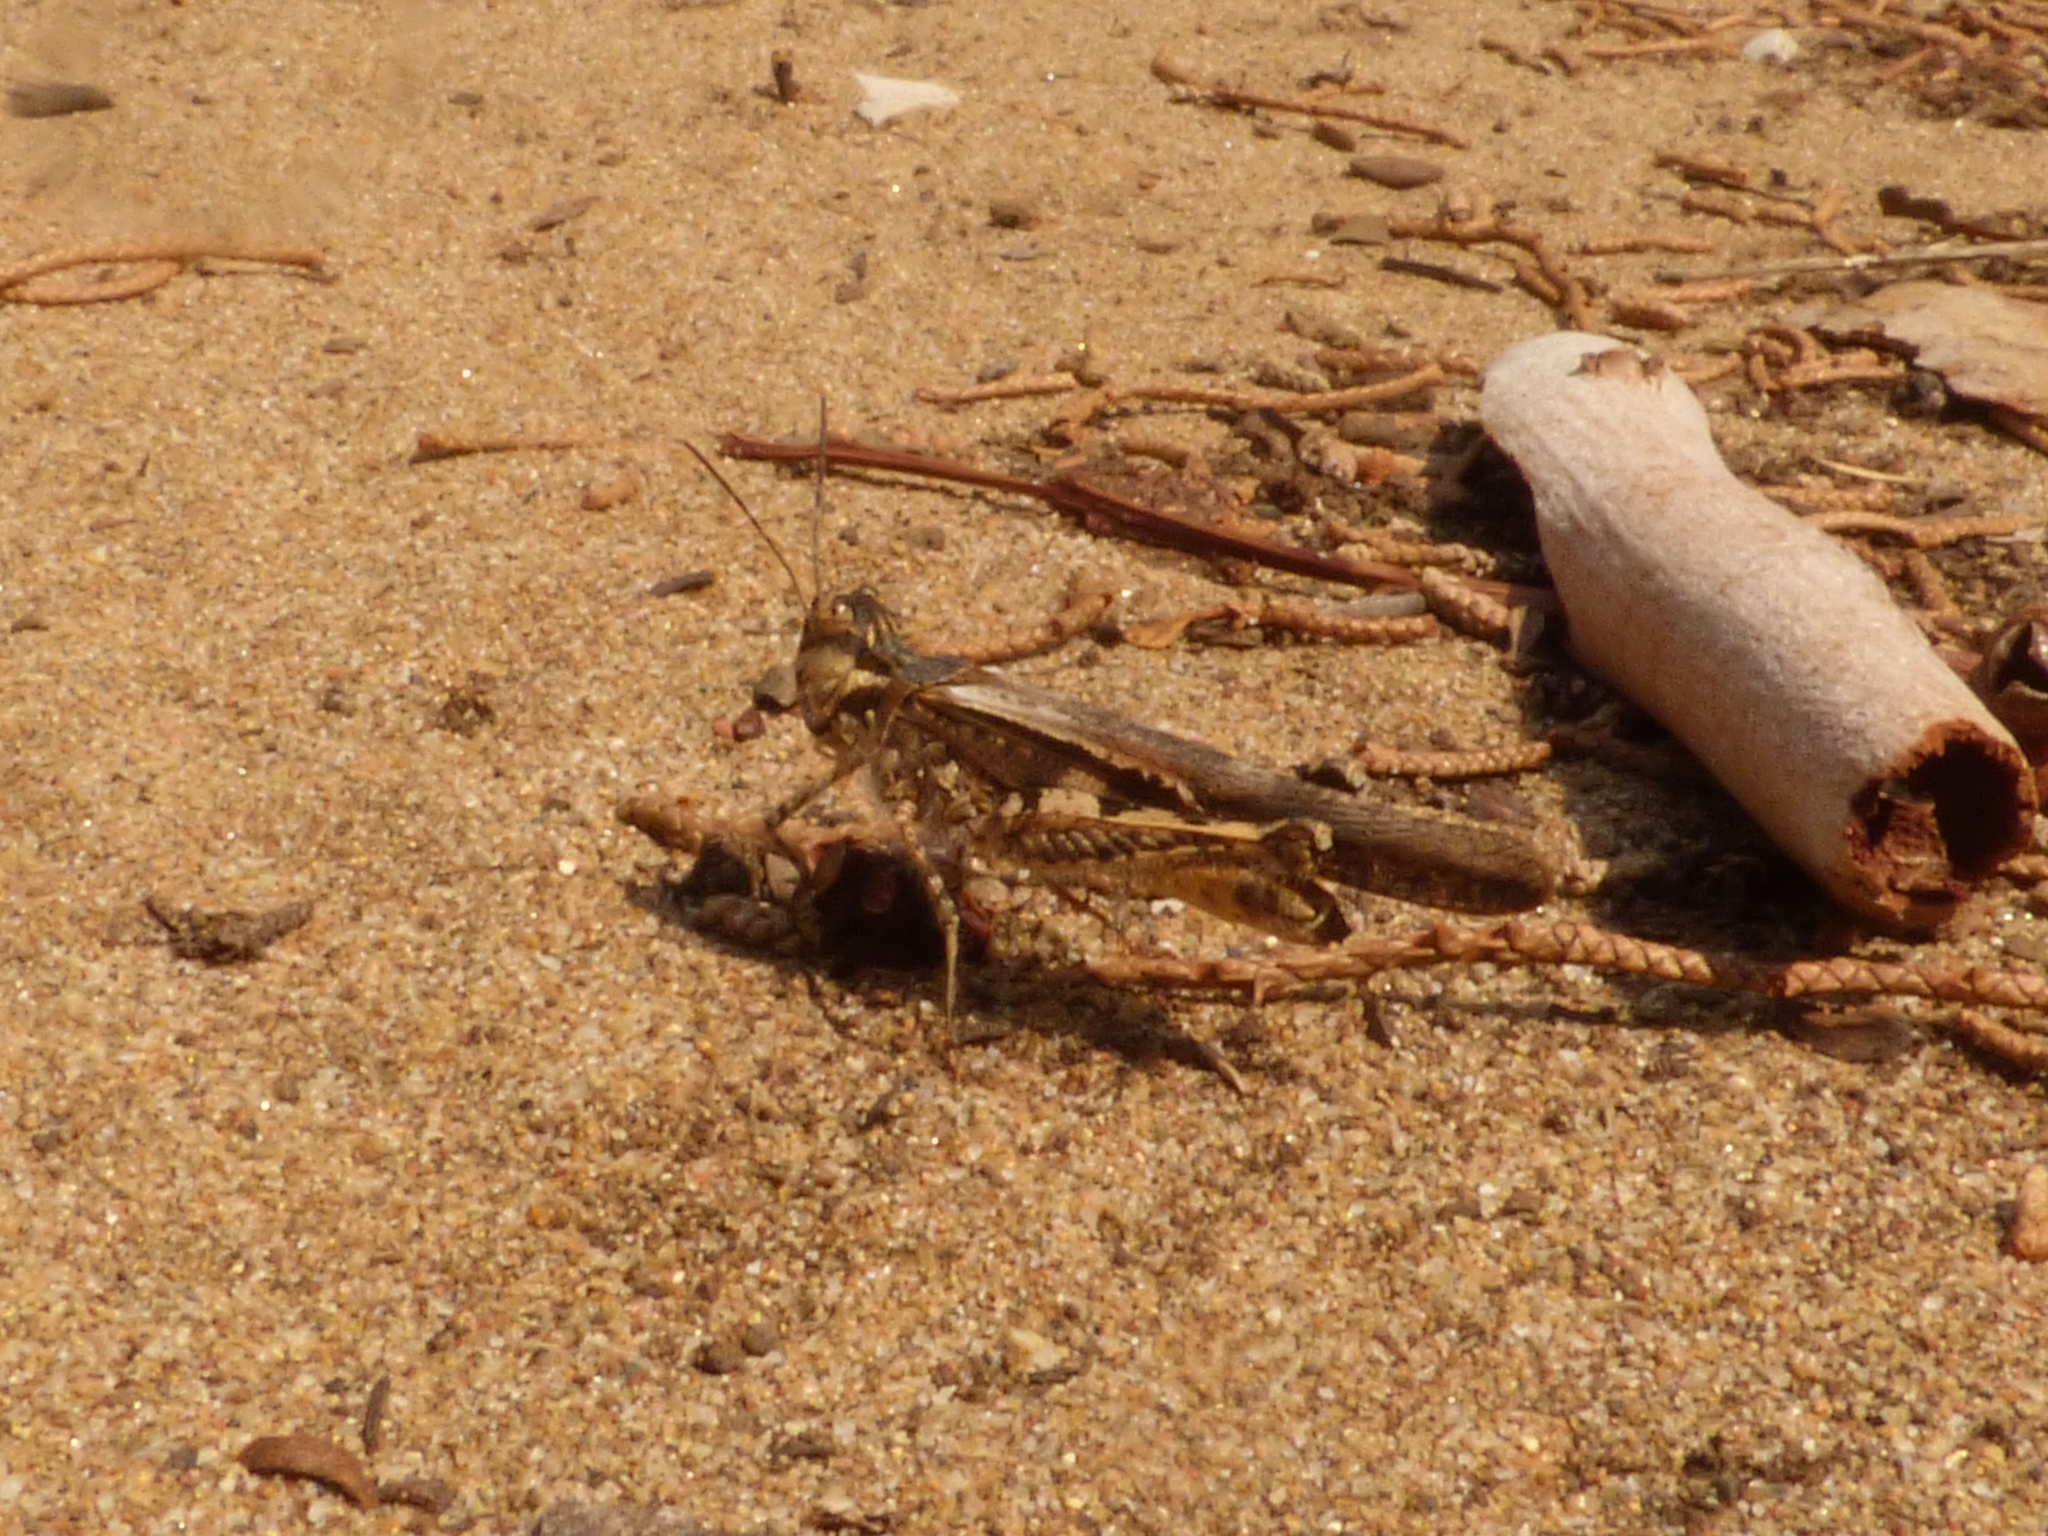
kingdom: Animalia
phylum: Arthropoda
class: Insecta
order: Orthoptera
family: Acrididae
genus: Acrotylus
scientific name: Acrotylus patruelis
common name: Slender burrowing grasshopper
